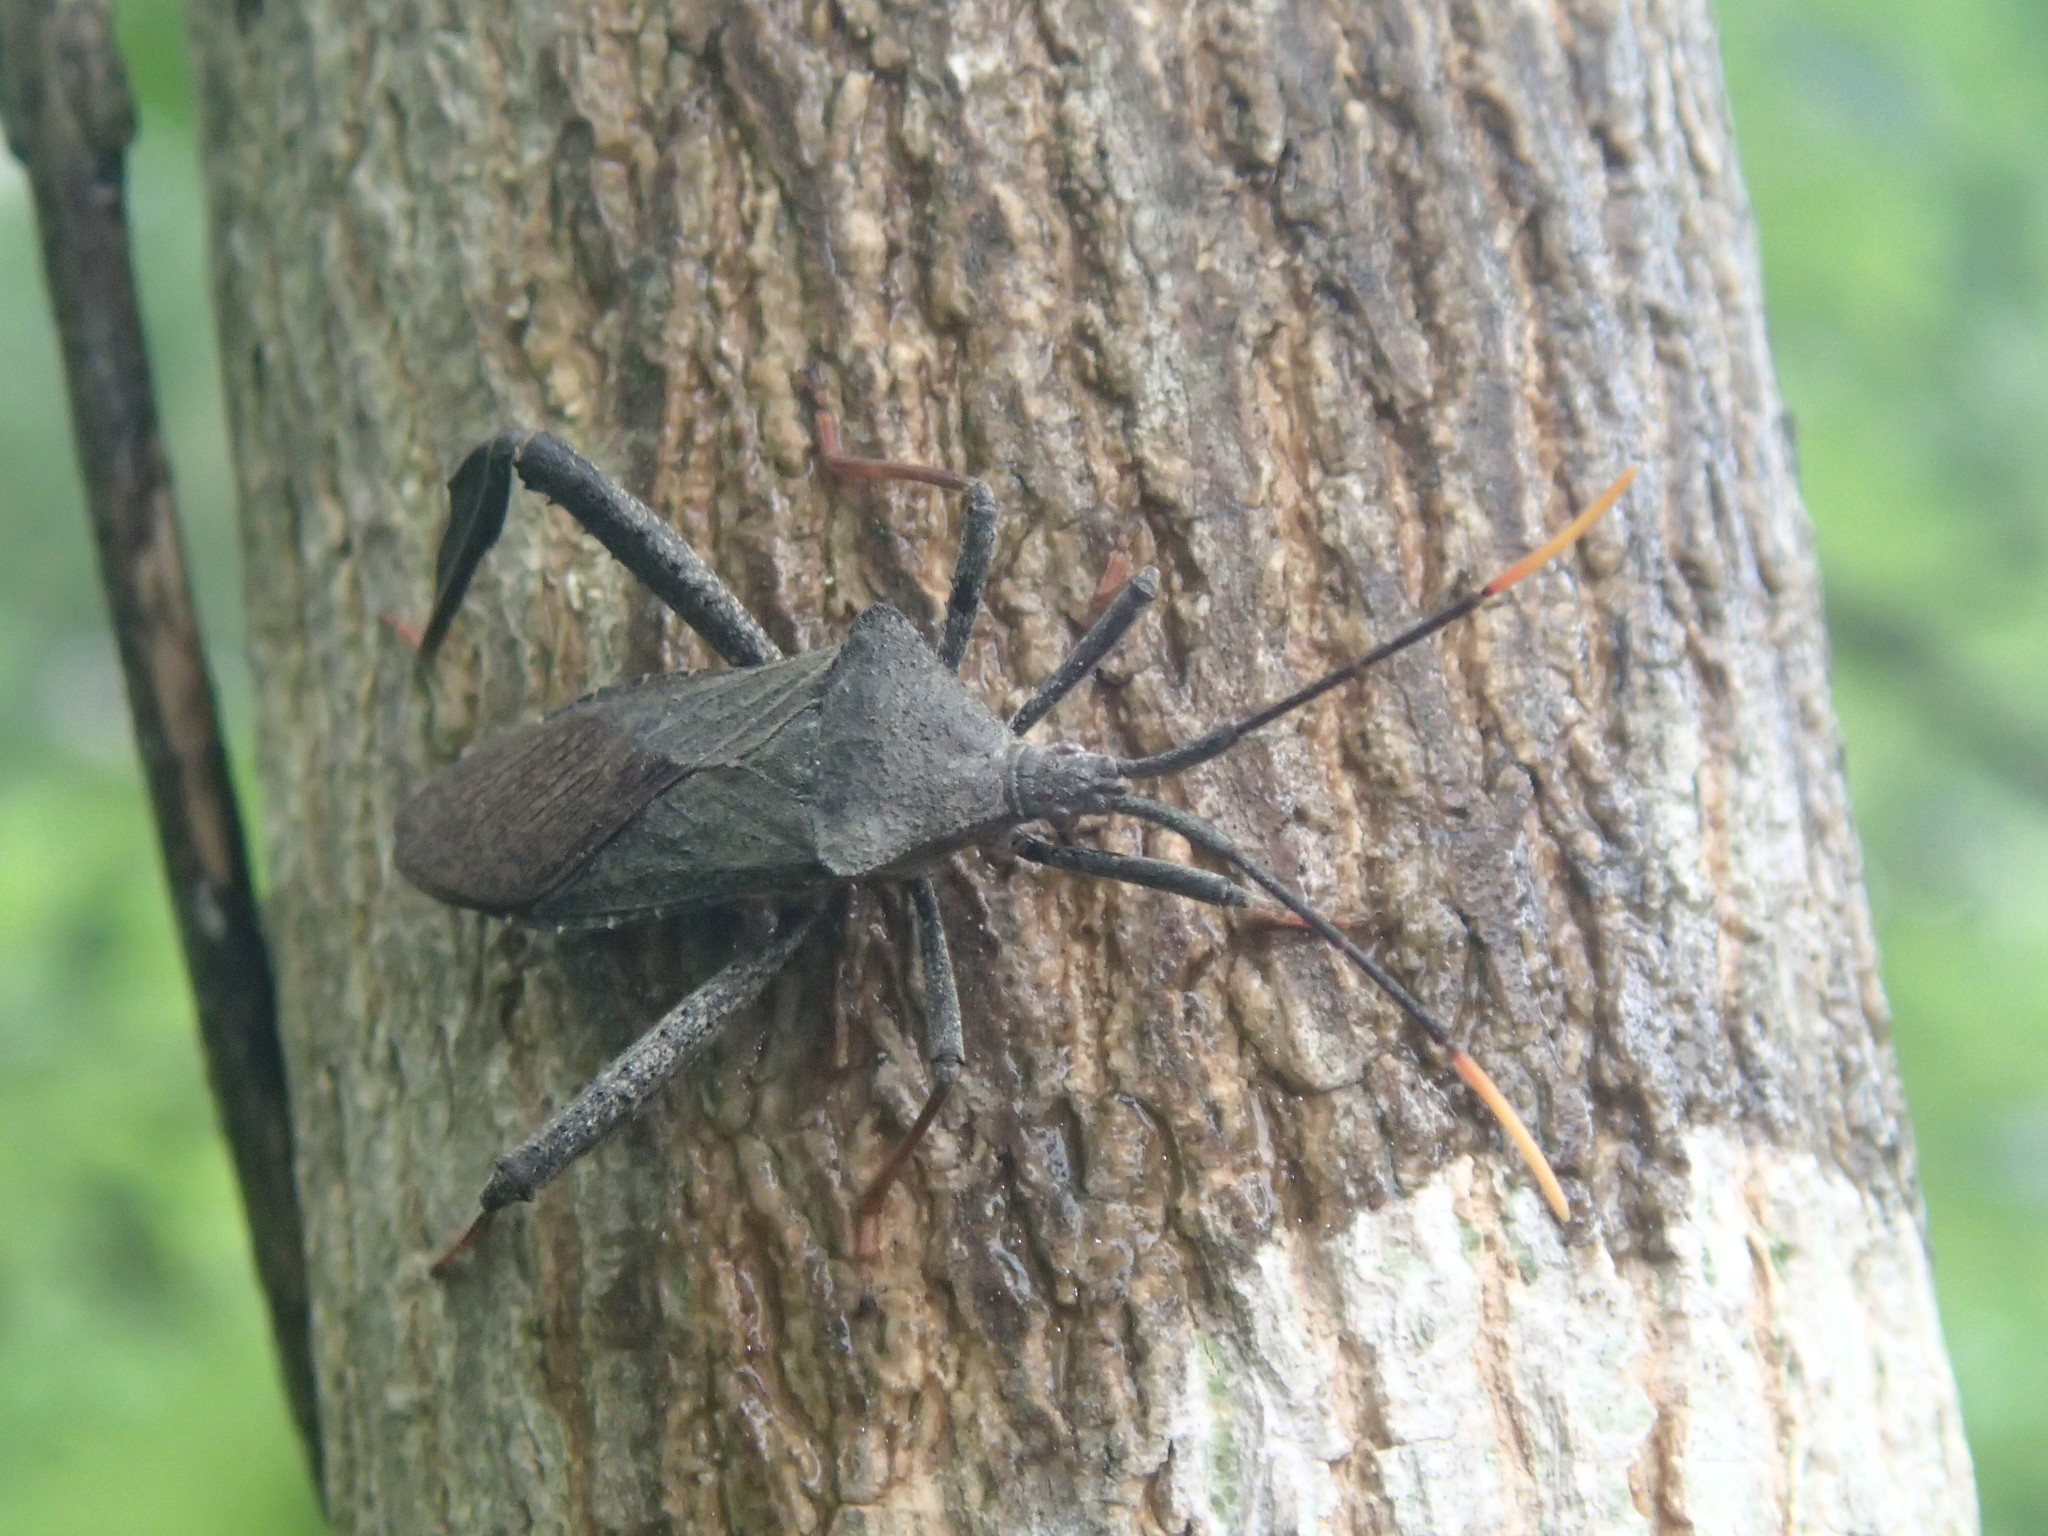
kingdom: Animalia
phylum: Arthropoda
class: Insecta
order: Hemiptera
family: Coreidae
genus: Acanthocephala
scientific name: Acanthocephala terminalis
